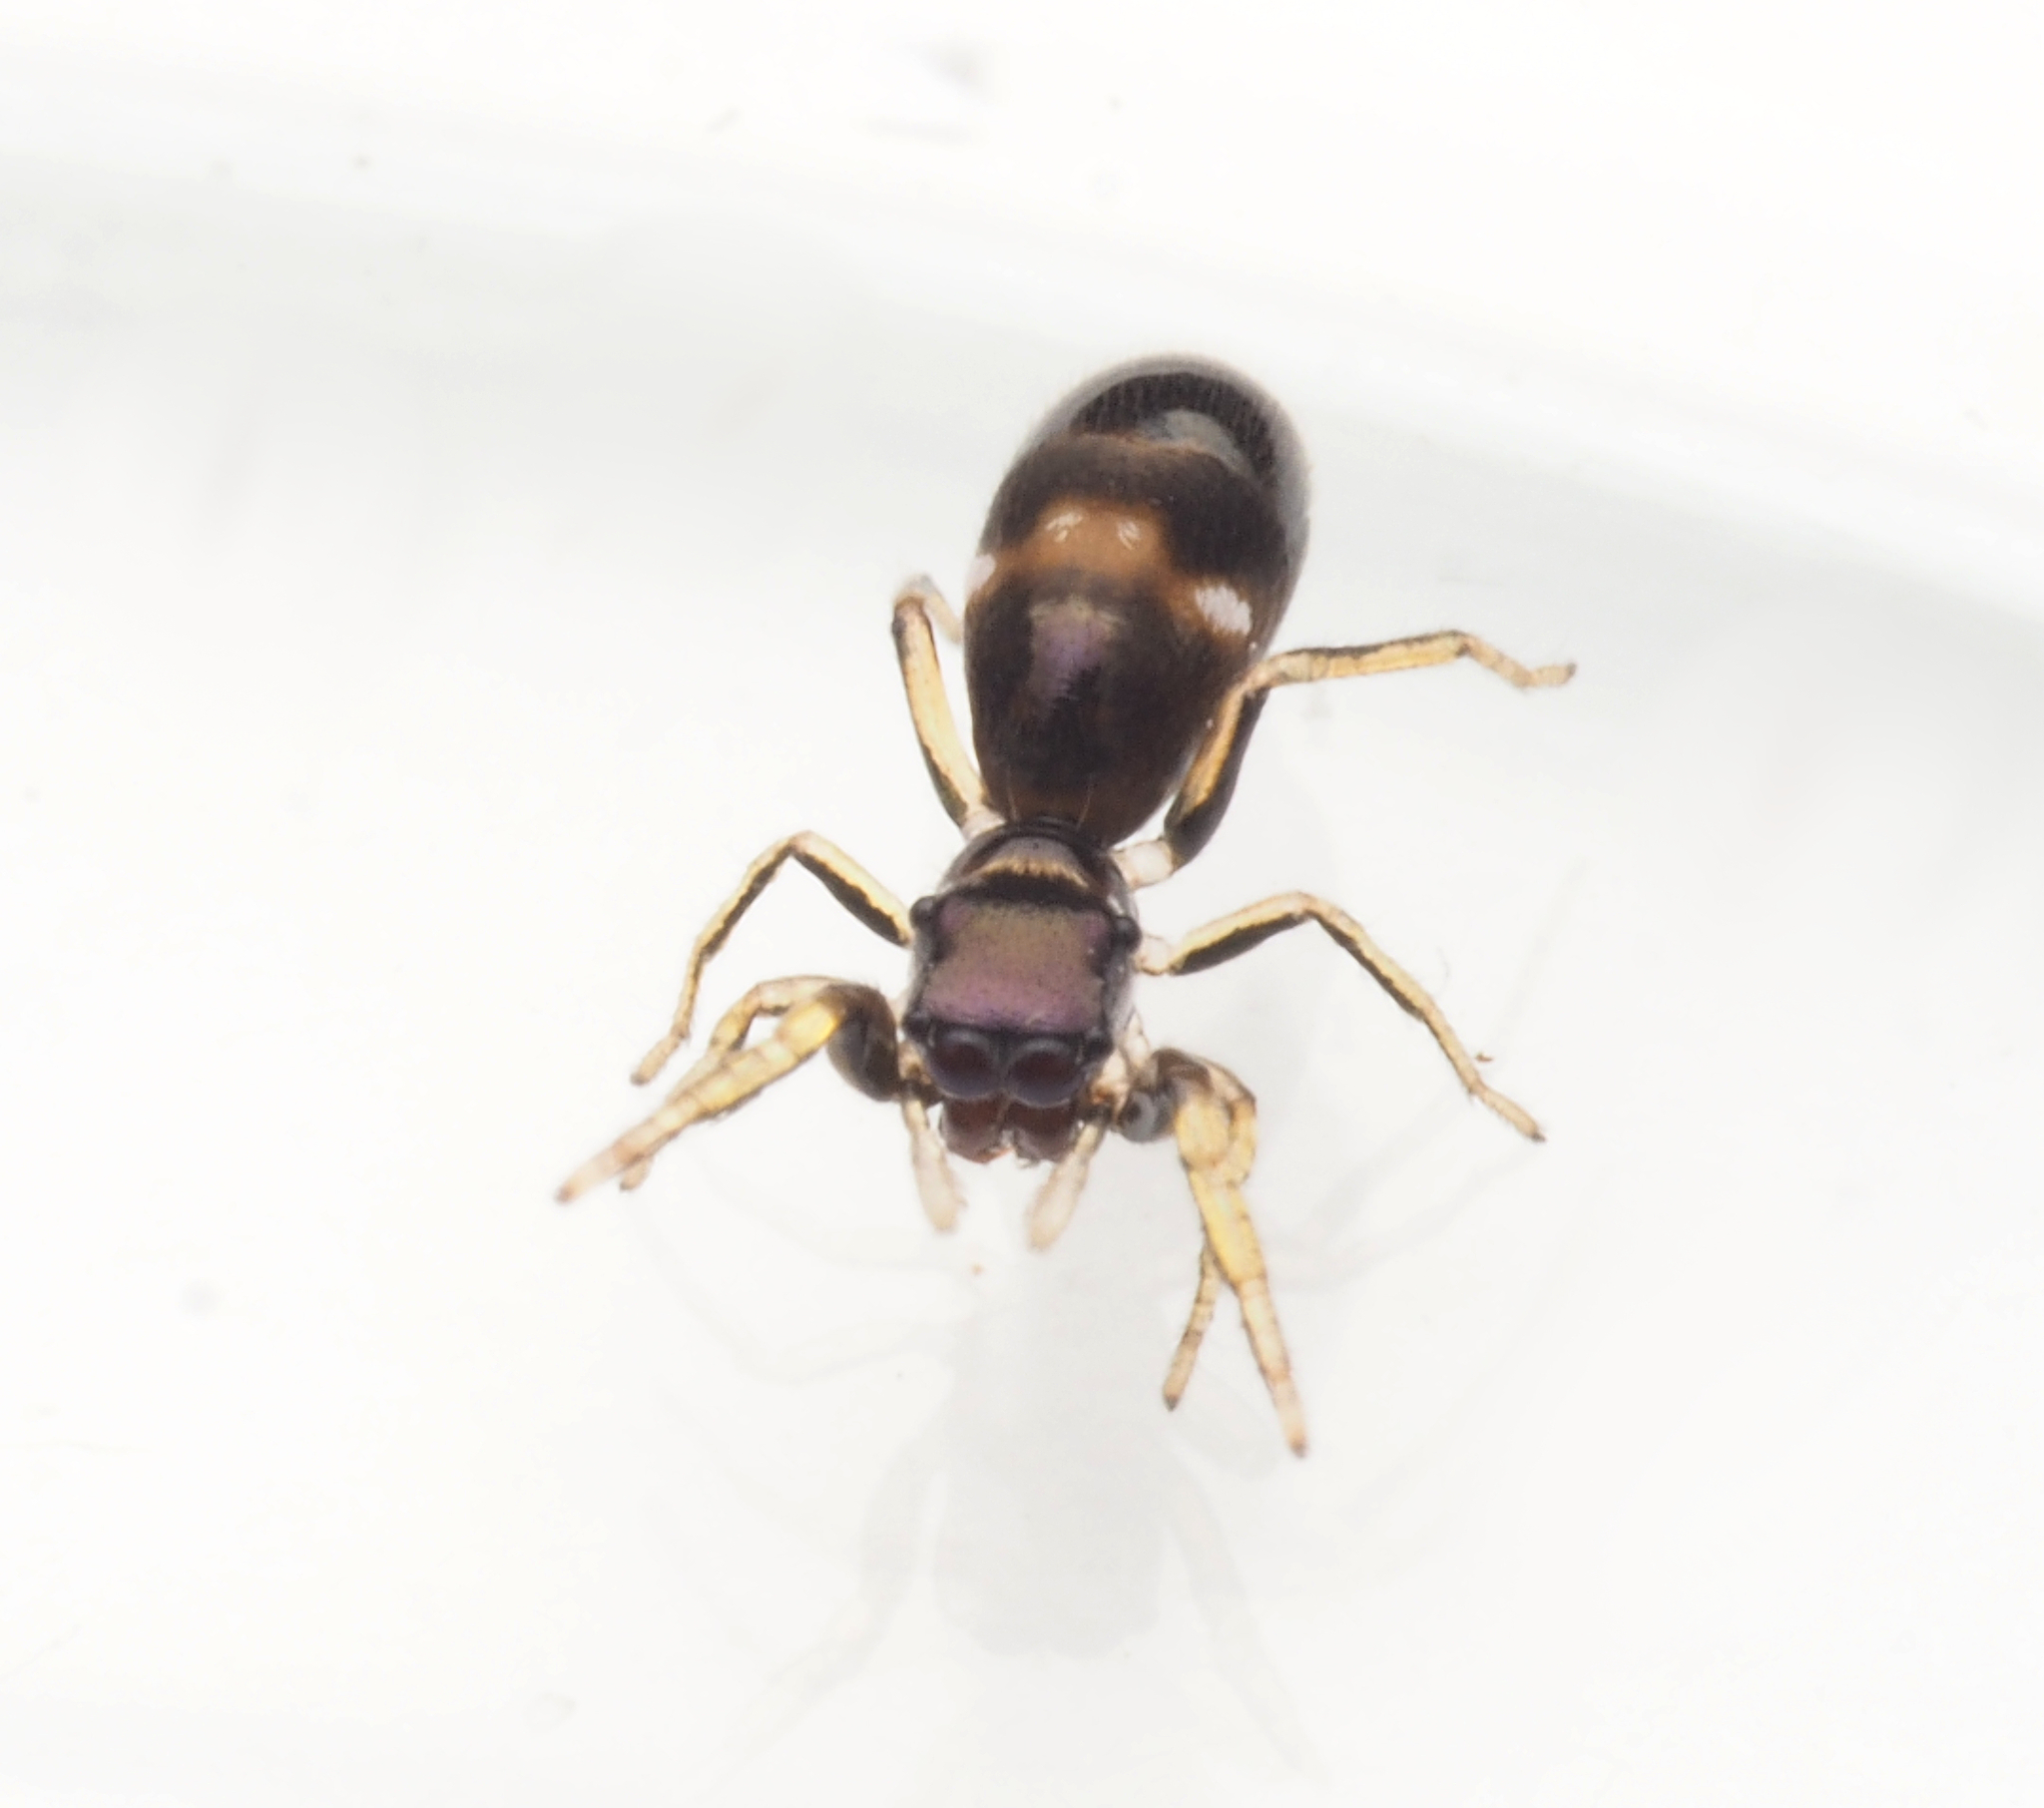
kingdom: Animalia
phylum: Arthropoda
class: Arachnida
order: Araneae
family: Salticidae
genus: Rhombonotus
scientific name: Rhombonotus
